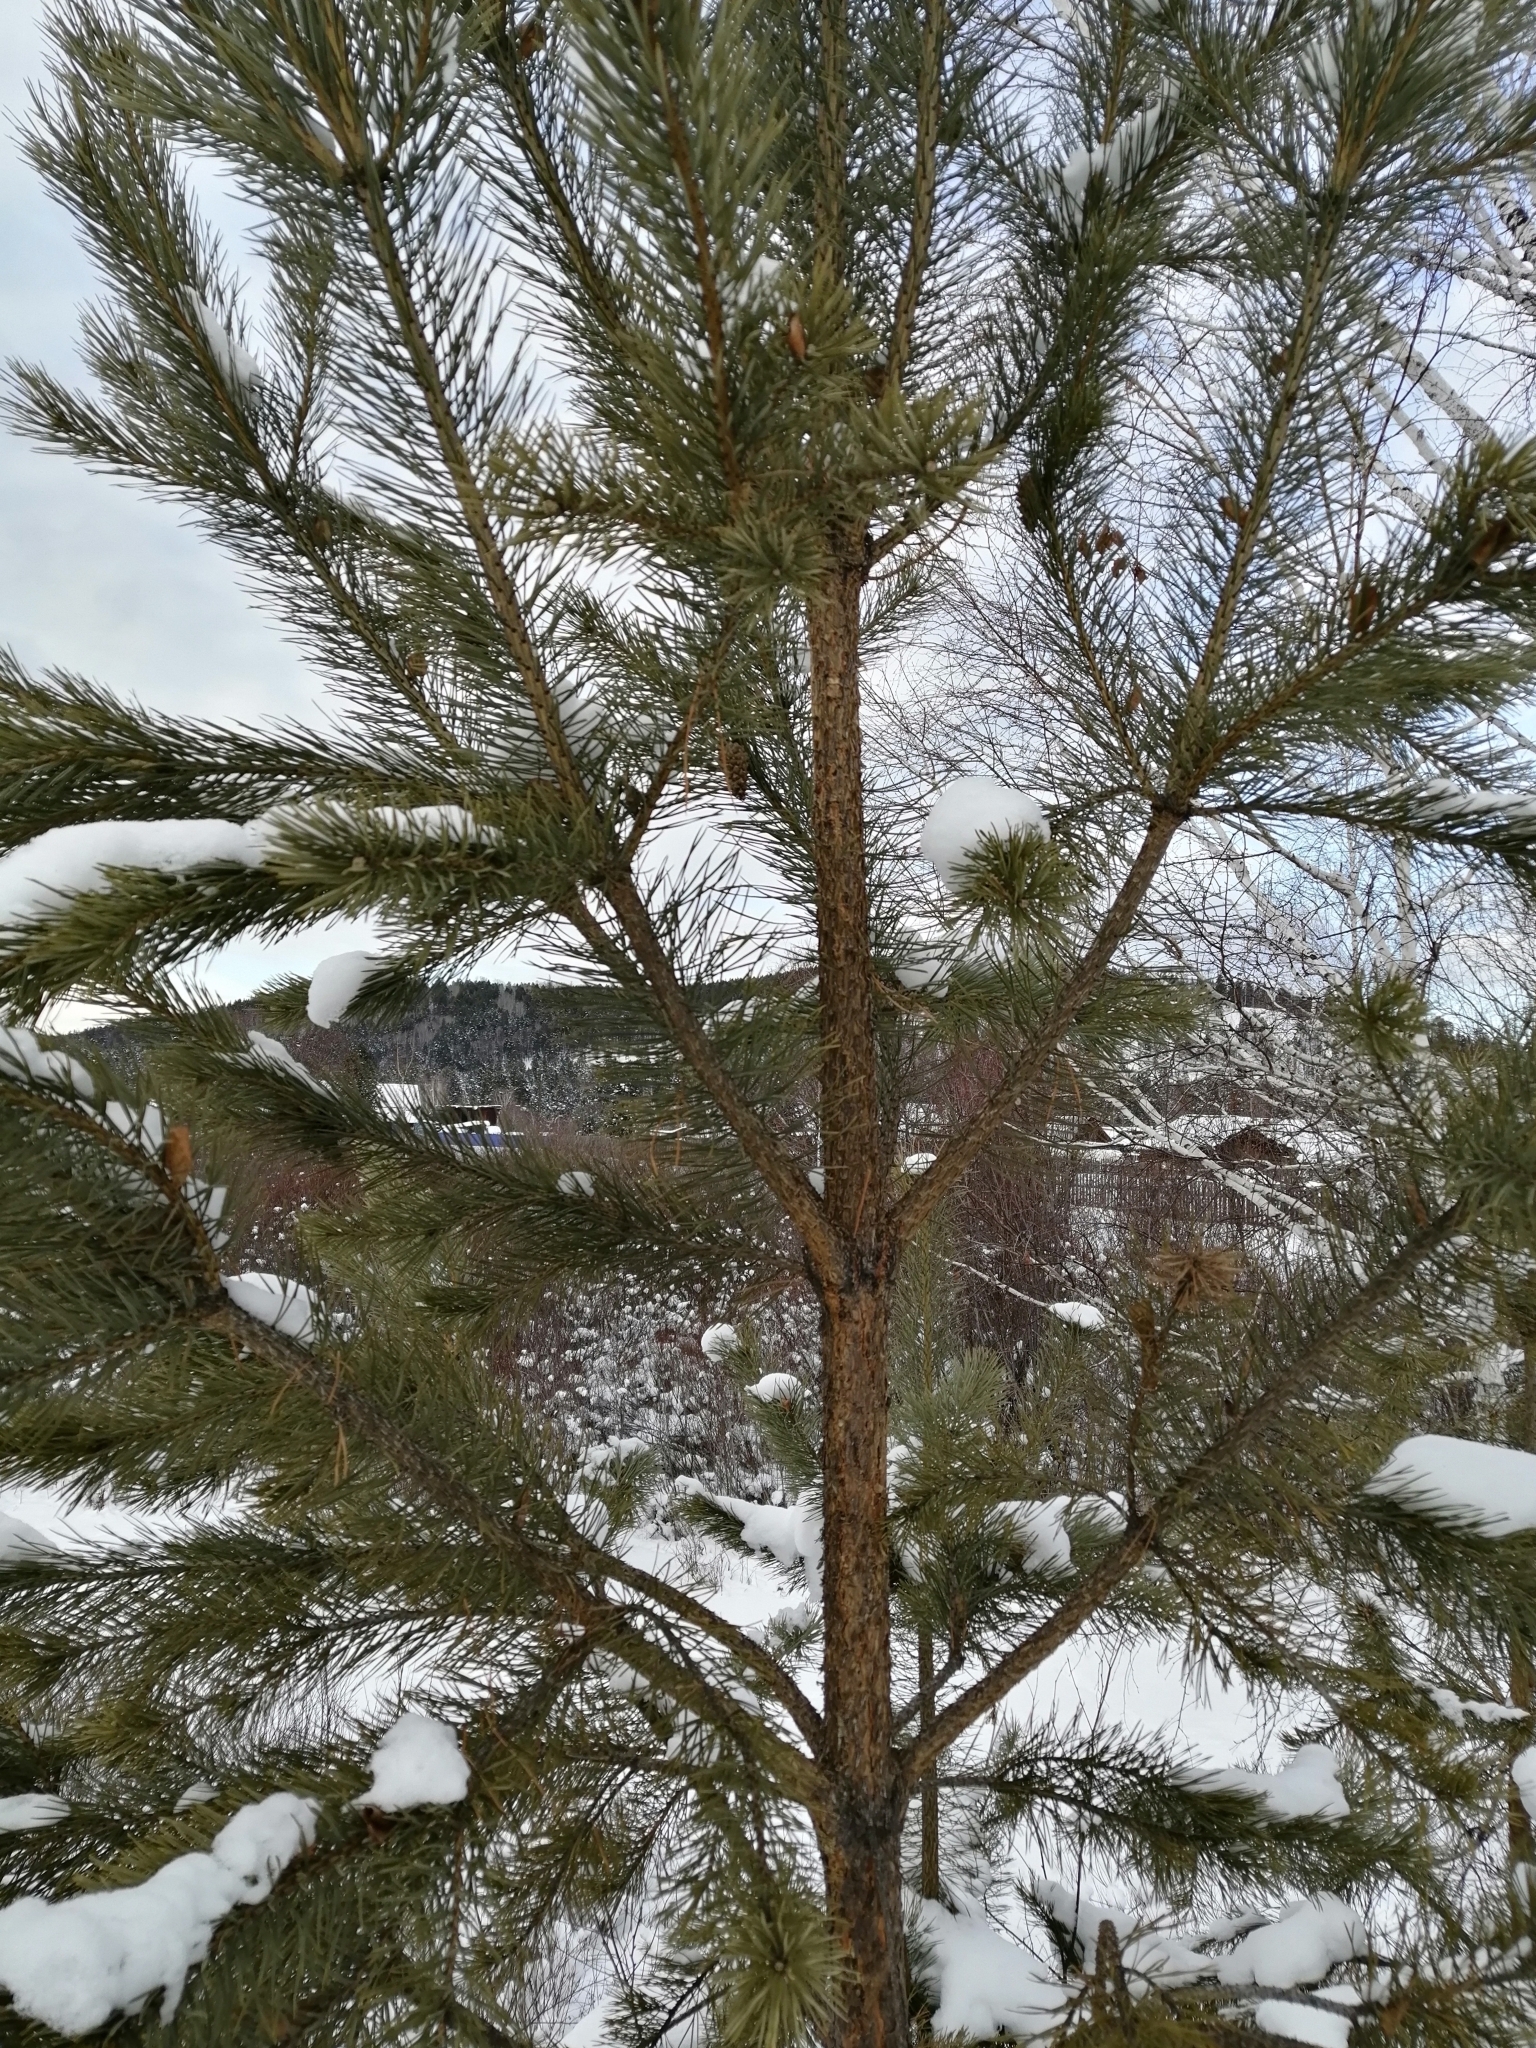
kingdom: Plantae
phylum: Tracheophyta
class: Pinopsida
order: Pinales
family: Pinaceae
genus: Pinus
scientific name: Pinus sylvestris
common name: Scots pine
